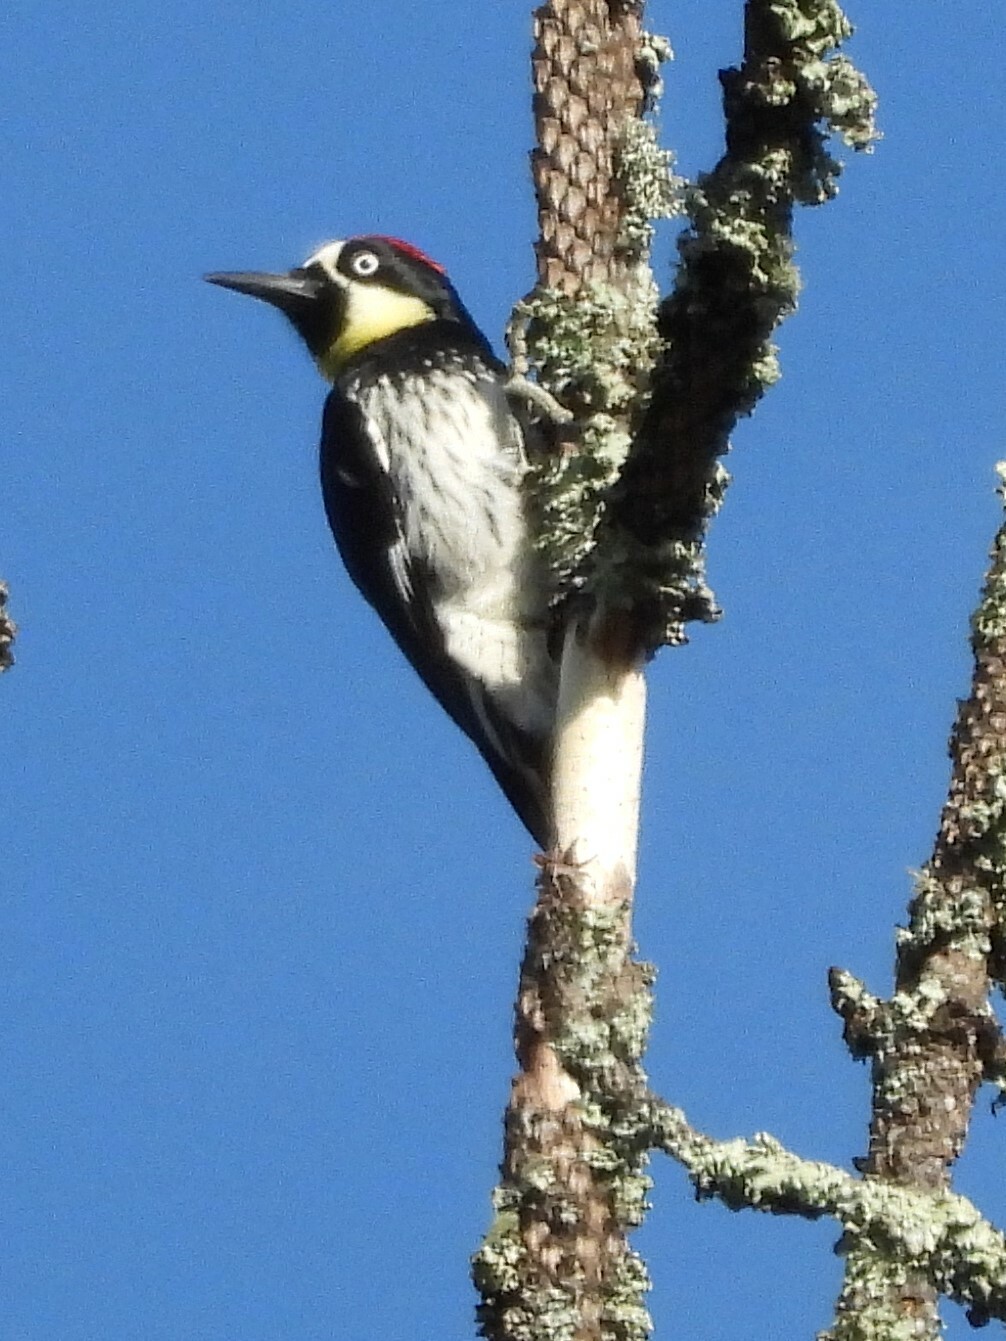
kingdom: Animalia
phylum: Chordata
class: Aves
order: Piciformes
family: Picidae
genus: Melanerpes
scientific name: Melanerpes formicivorus
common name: Acorn woodpecker
